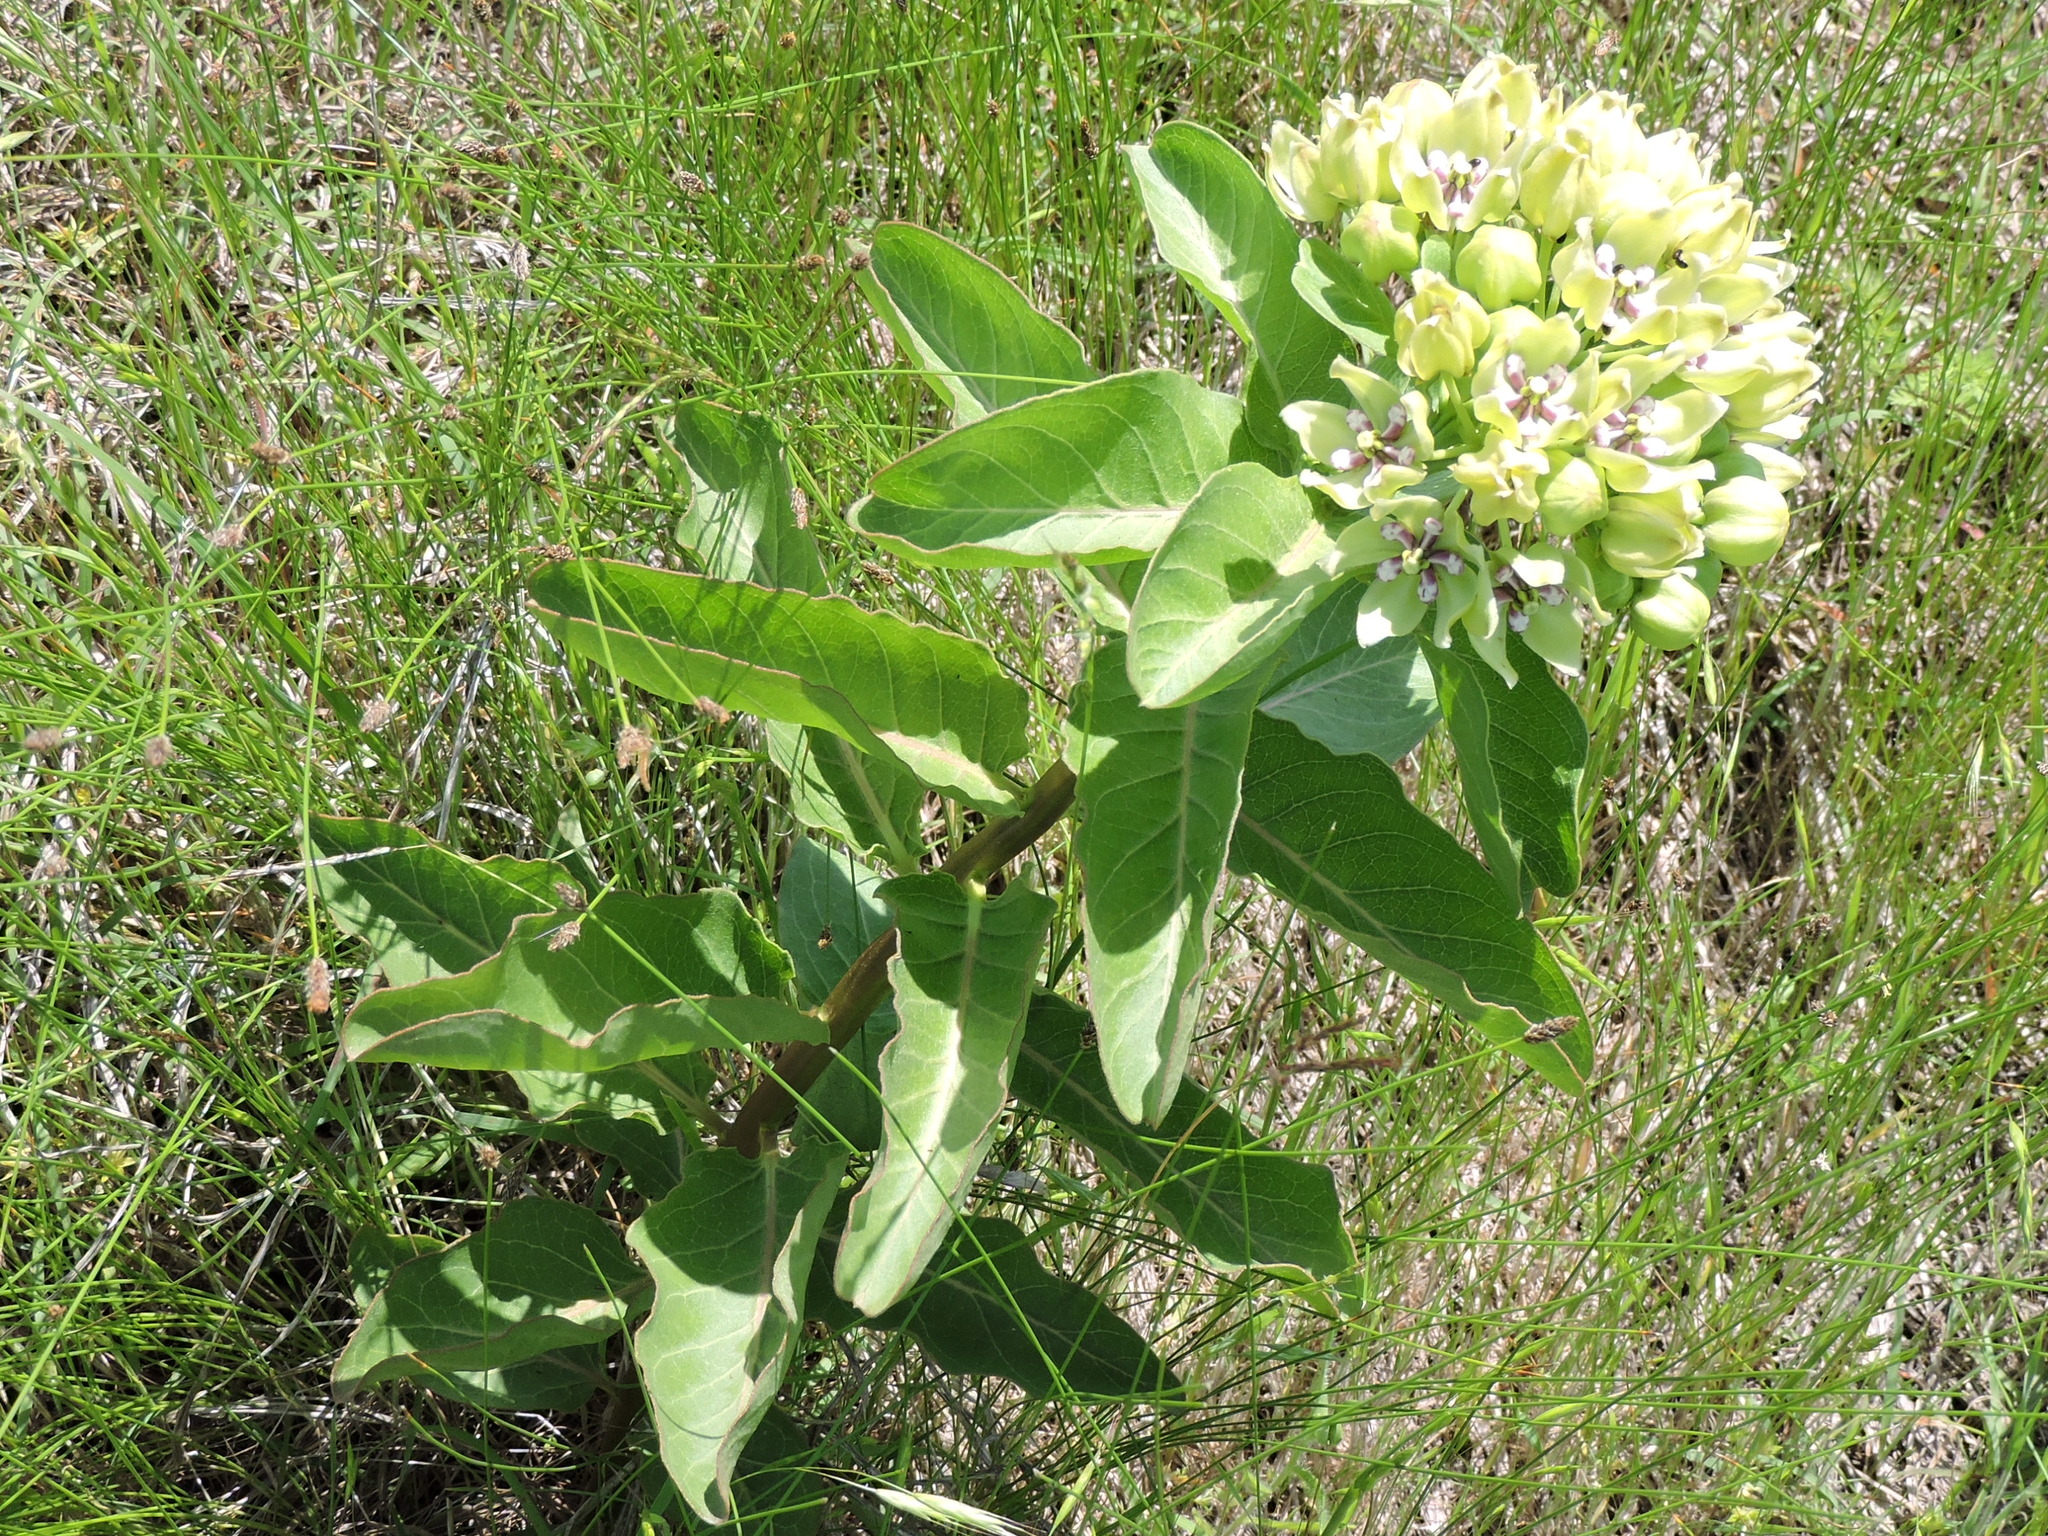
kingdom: Plantae
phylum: Tracheophyta
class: Magnoliopsida
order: Gentianales
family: Apocynaceae
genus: Asclepias
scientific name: Asclepias viridis
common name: Antelope-horns
